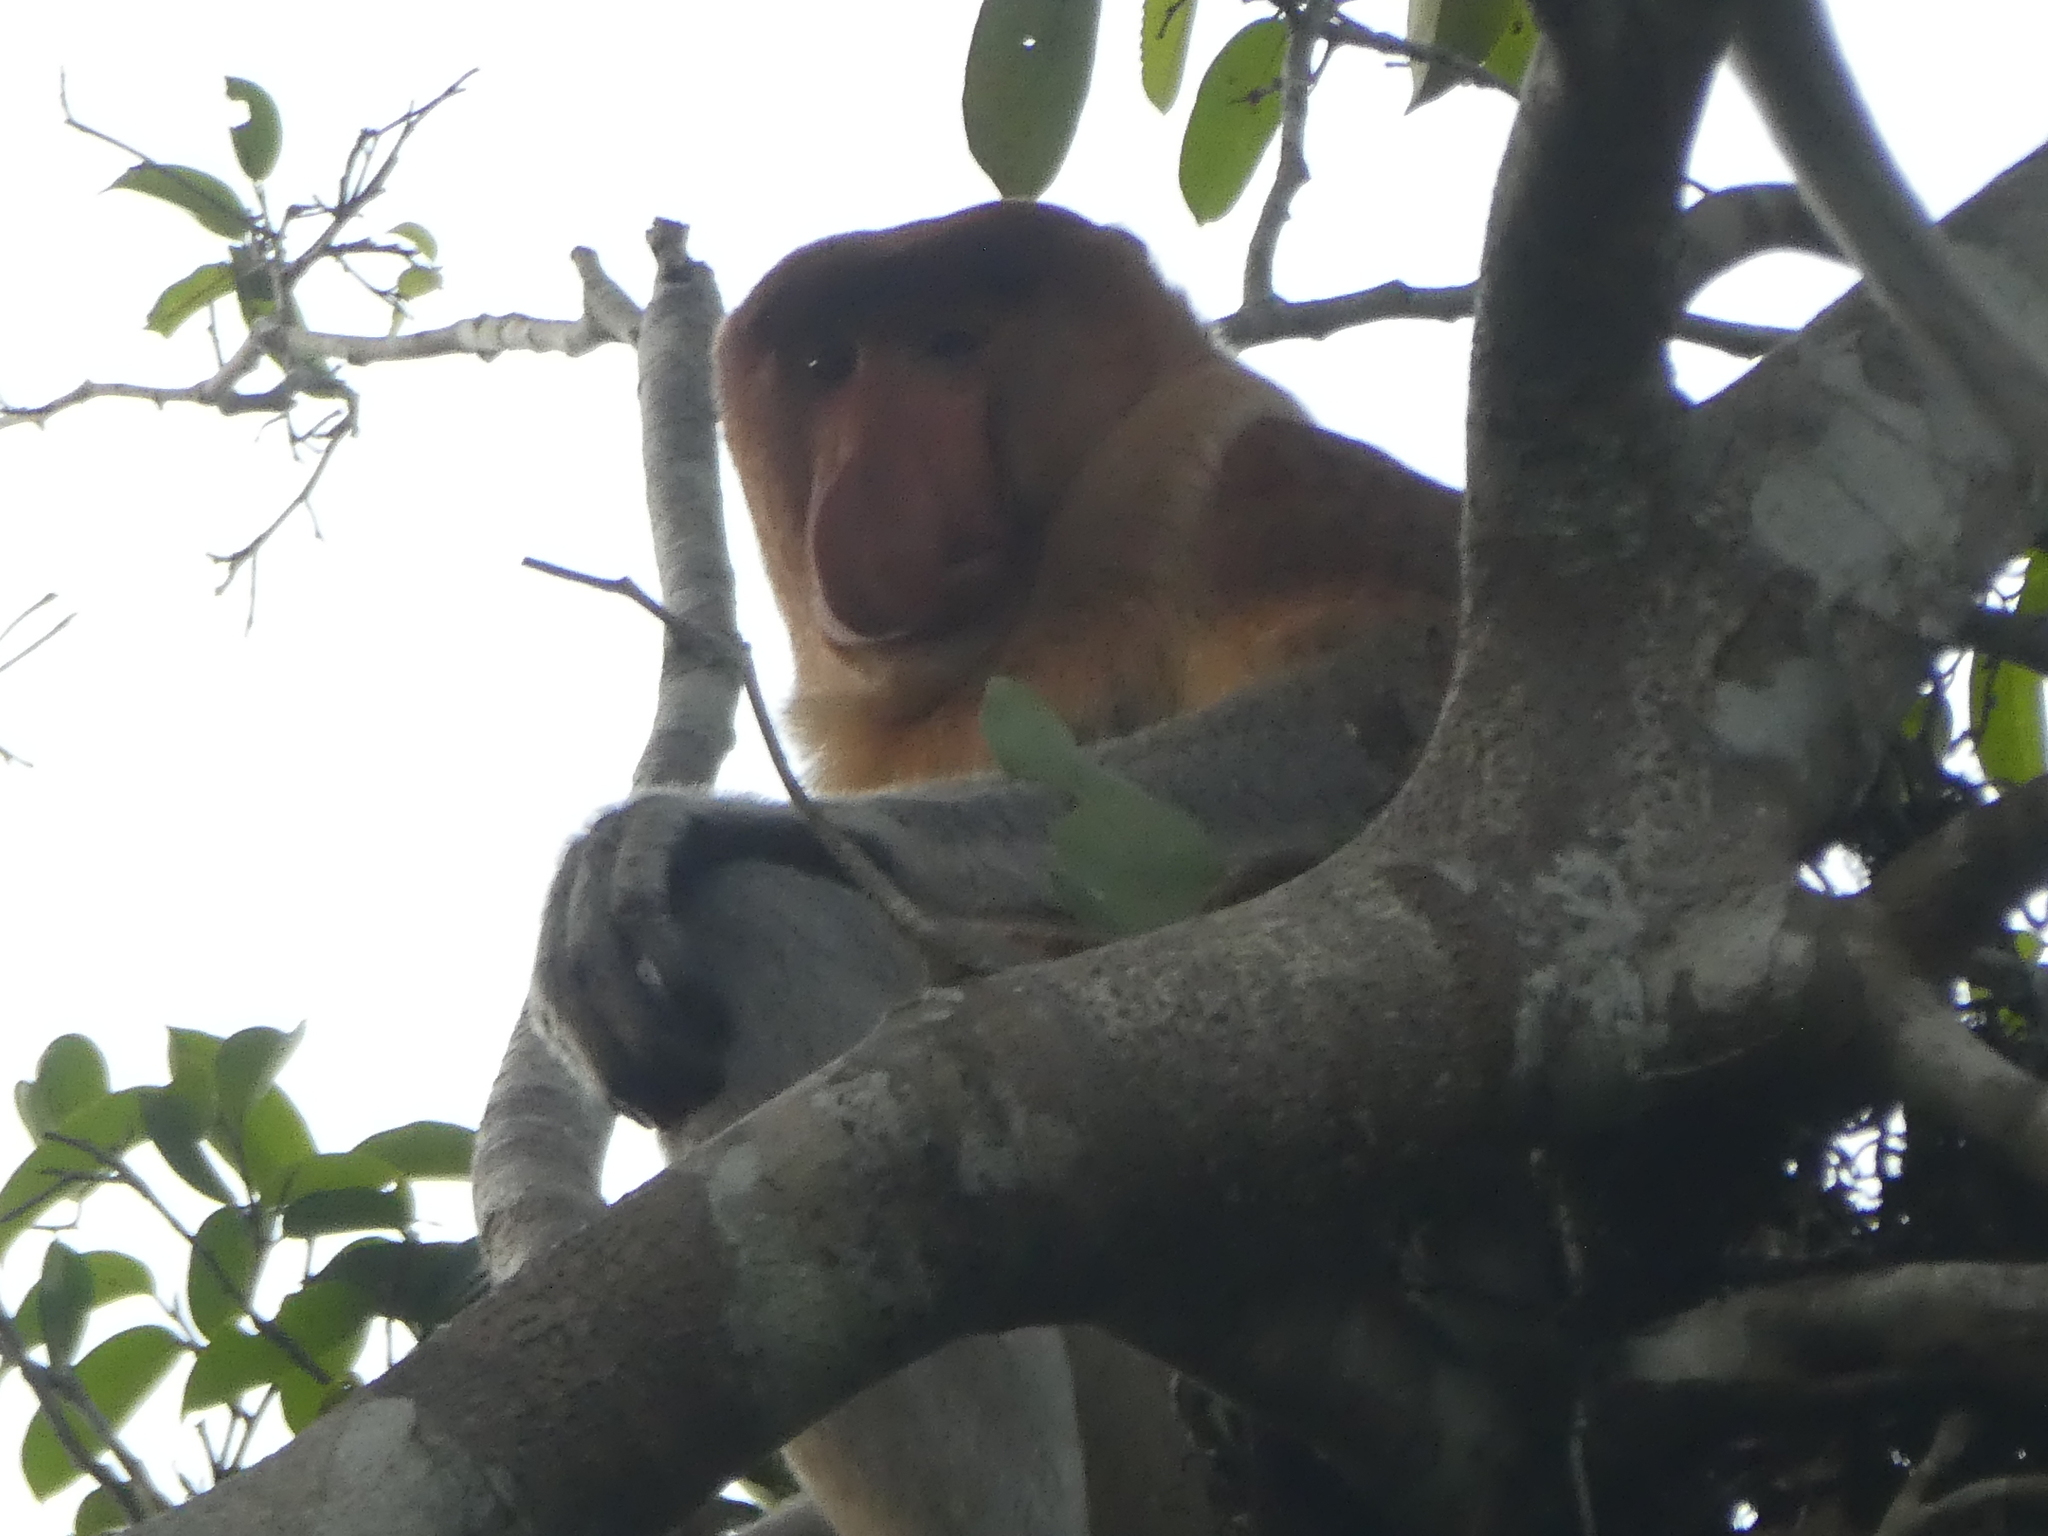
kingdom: Animalia
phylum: Chordata
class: Mammalia
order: Primates
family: Cercopithecidae
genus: Nasalis
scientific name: Nasalis larvatus
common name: Proboscis monkey
